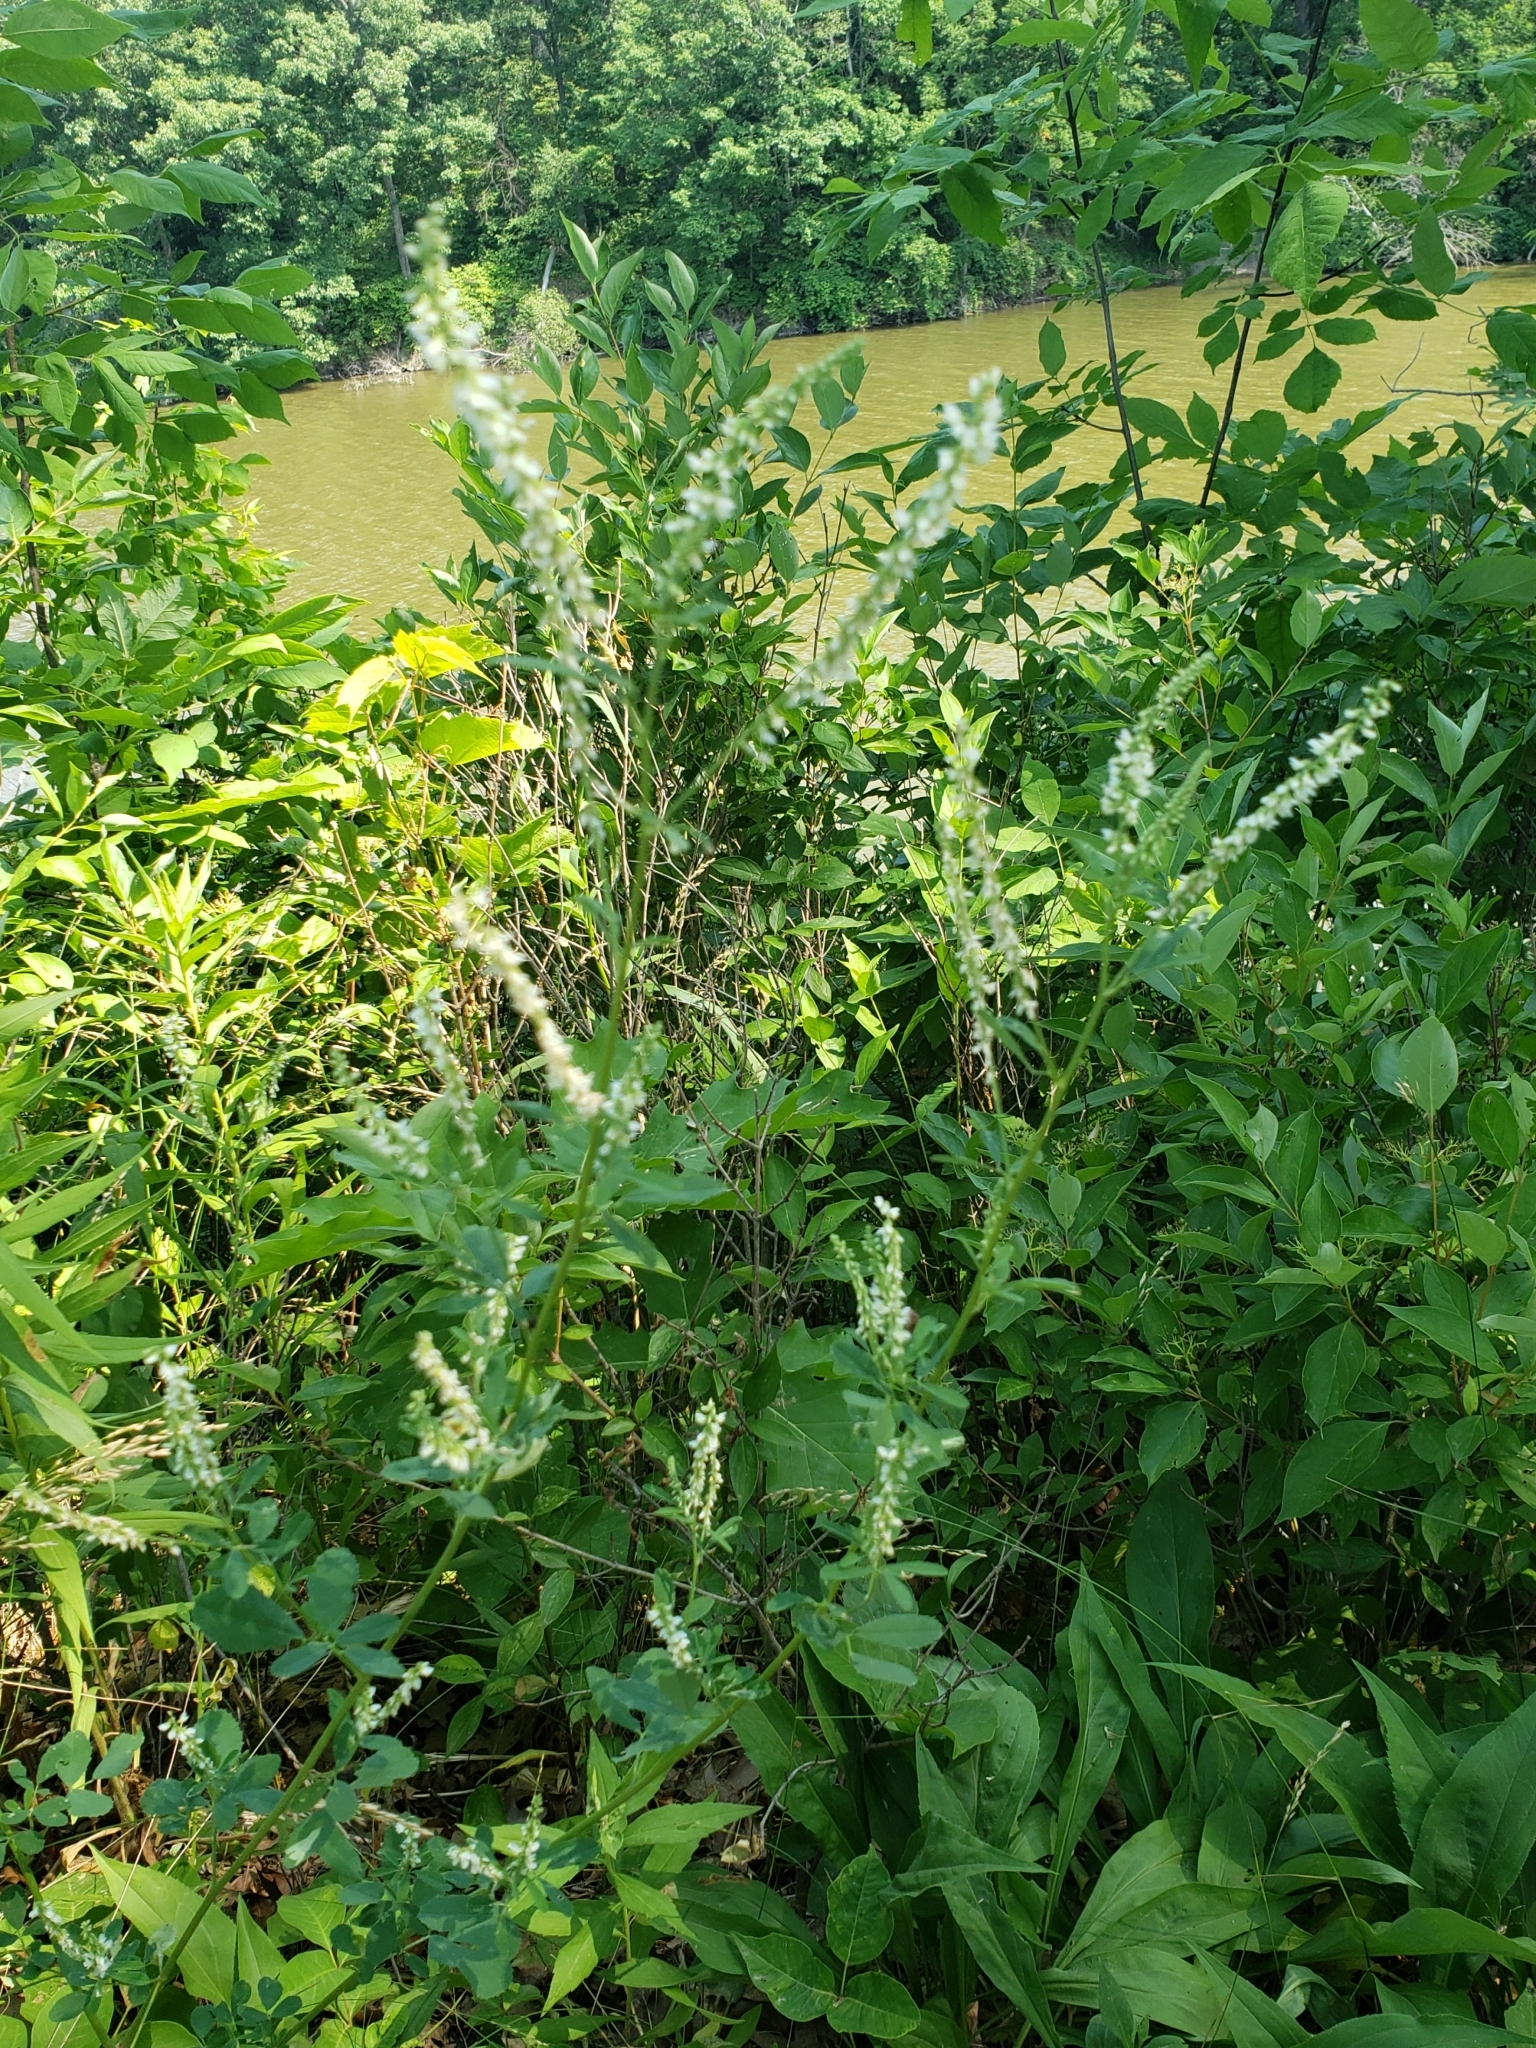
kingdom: Plantae
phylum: Tracheophyta
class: Magnoliopsida
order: Fabales
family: Fabaceae
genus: Melilotus
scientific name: Melilotus albus
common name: White melilot
